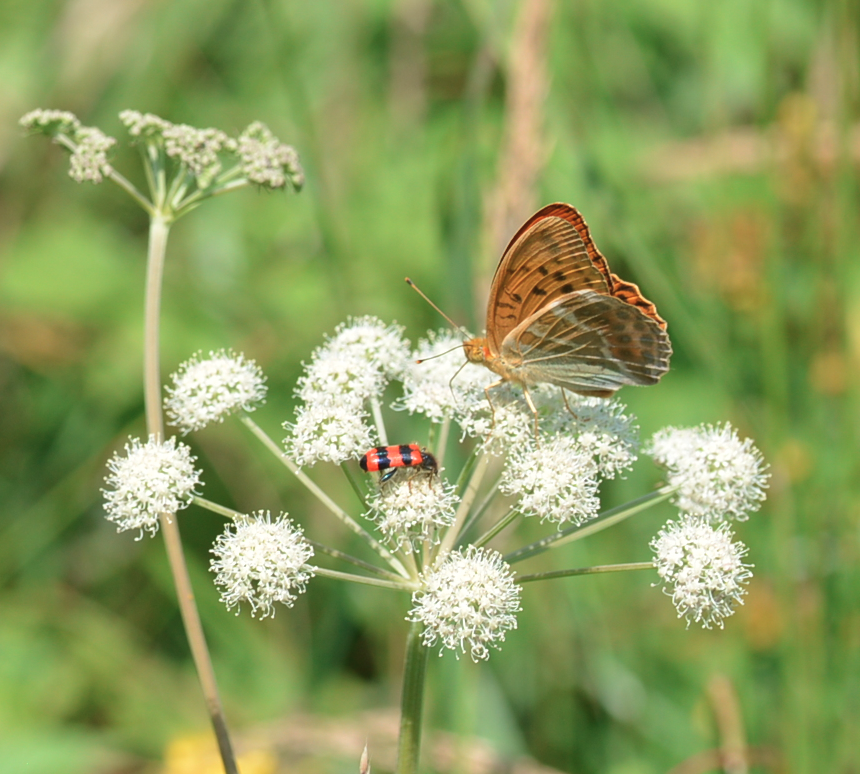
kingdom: Animalia
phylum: Arthropoda
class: Insecta
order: Lepidoptera
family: Nymphalidae
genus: Argynnis
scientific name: Argynnis paphia
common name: Silver-washed fritillary
